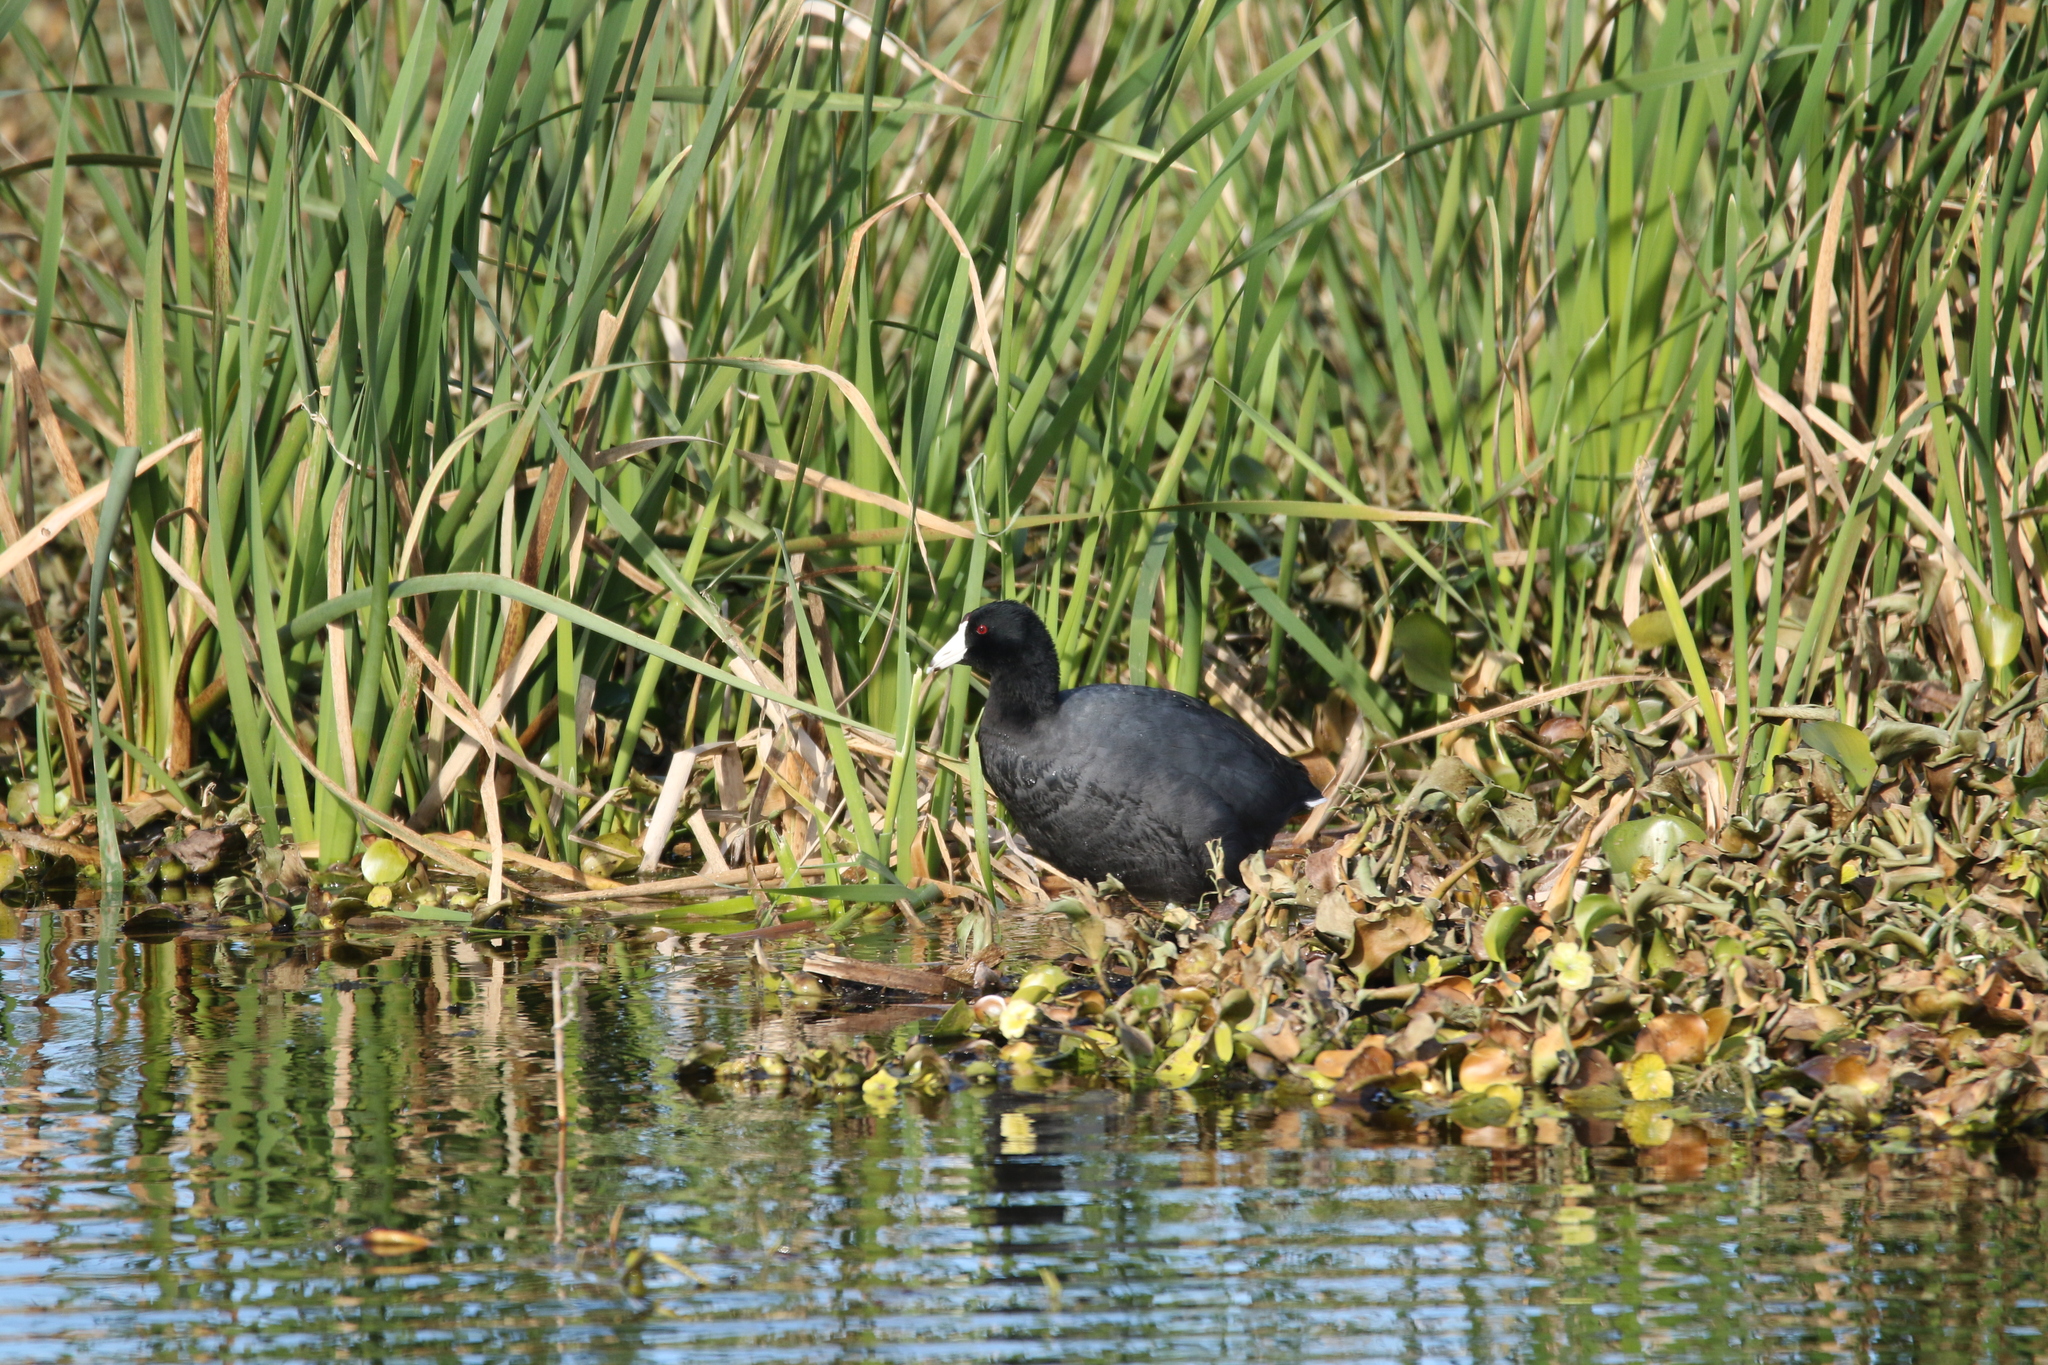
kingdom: Animalia
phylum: Chordata
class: Aves
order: Gruiformes
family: Rallidae
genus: Fulica
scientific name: Fulica americana
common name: American coot
